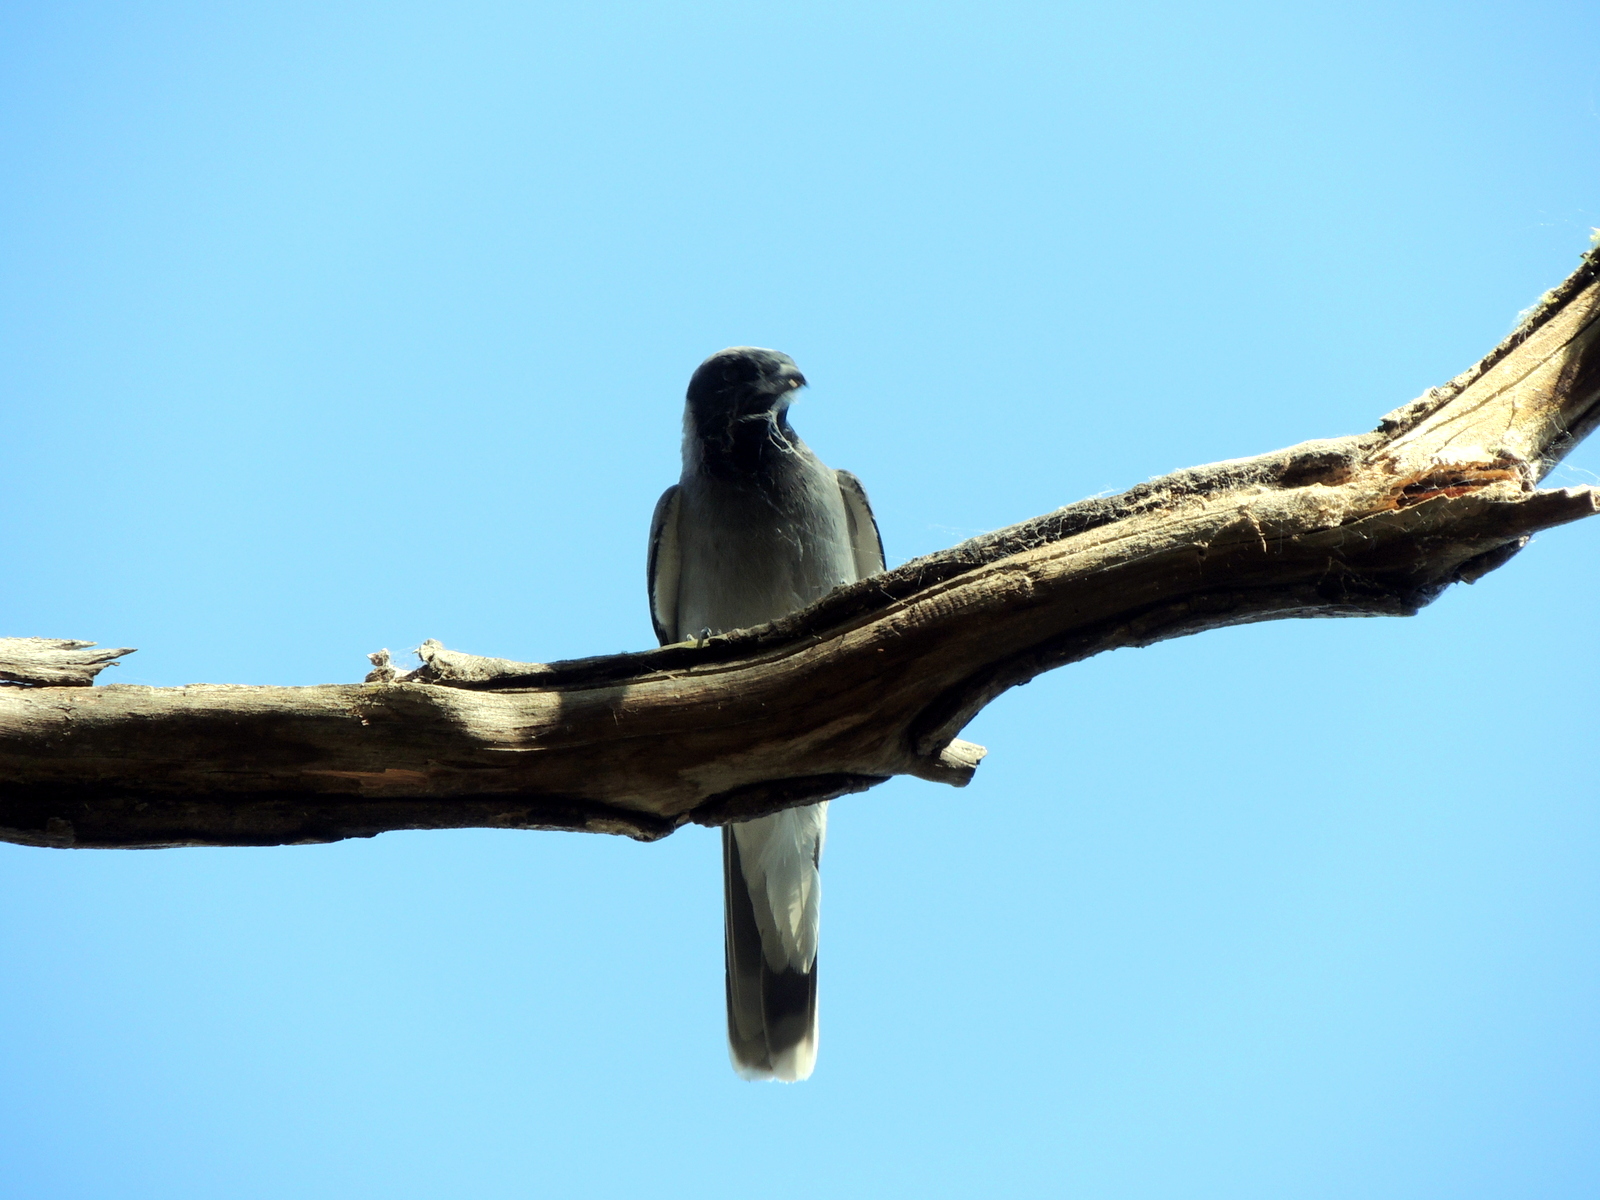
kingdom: Animalia
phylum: Chordata
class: Aves
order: Passeriformes
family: Campephagidae
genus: Coracina
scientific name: Coracina novaehollandiae
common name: Black-faced cuckooshrike
